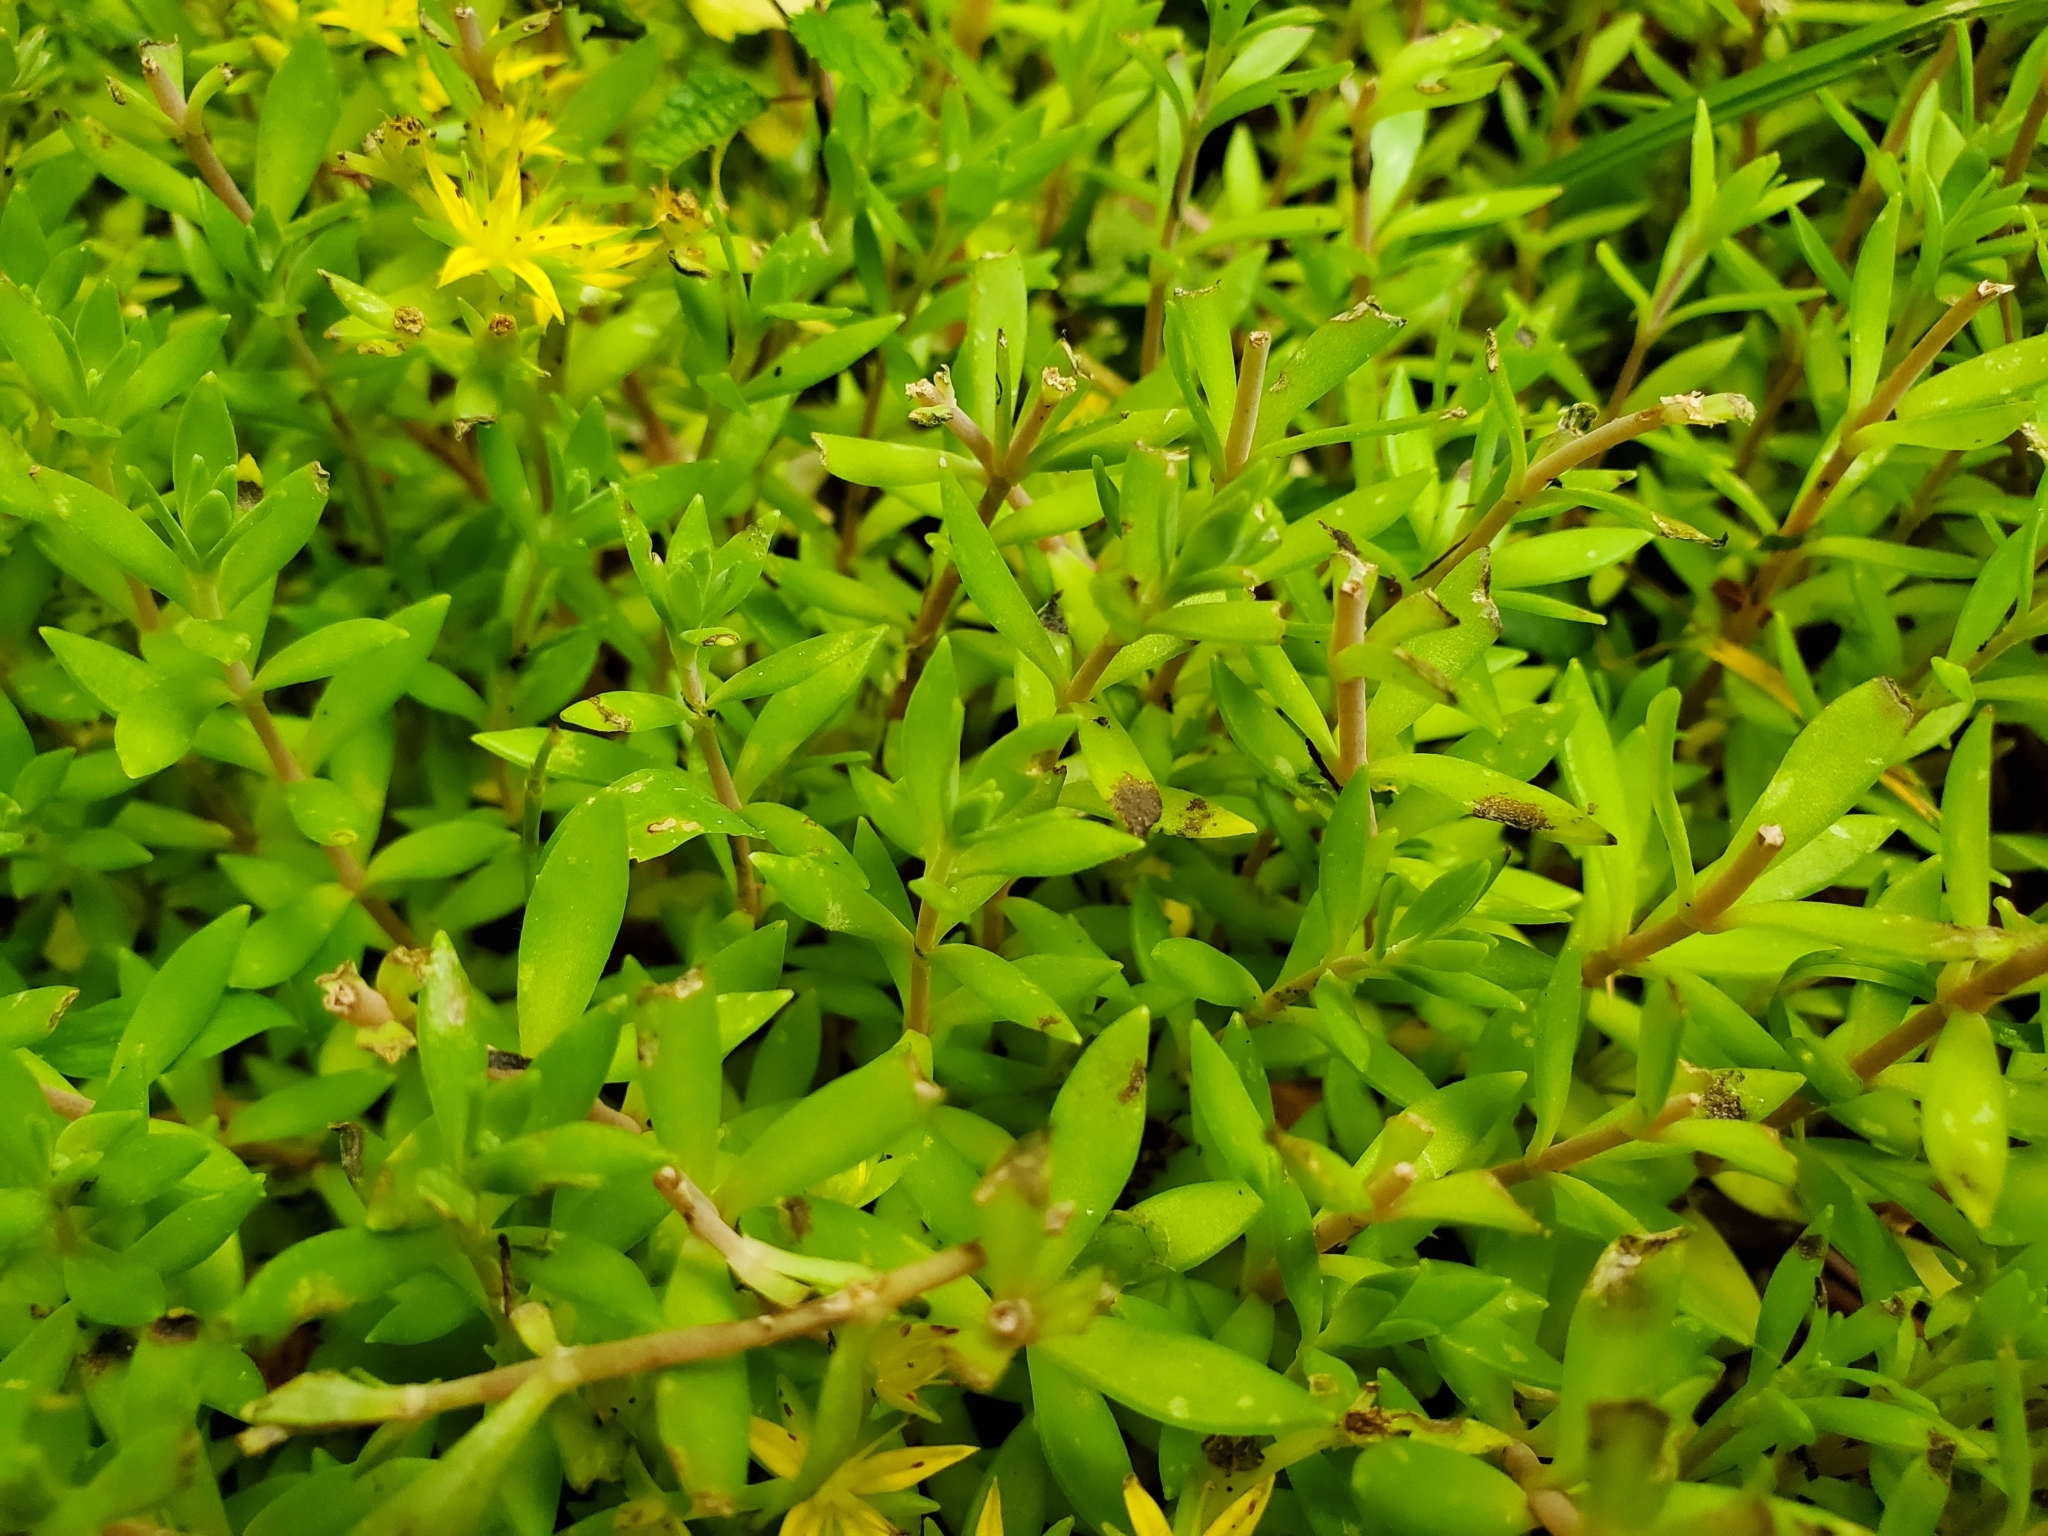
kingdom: Plantae
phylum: Tracheophyta
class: Magnoliopsida
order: Saxifragales
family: Crassulaceae
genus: Sedum
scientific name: Sedum sarmentosum
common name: Stringy stonecrop
